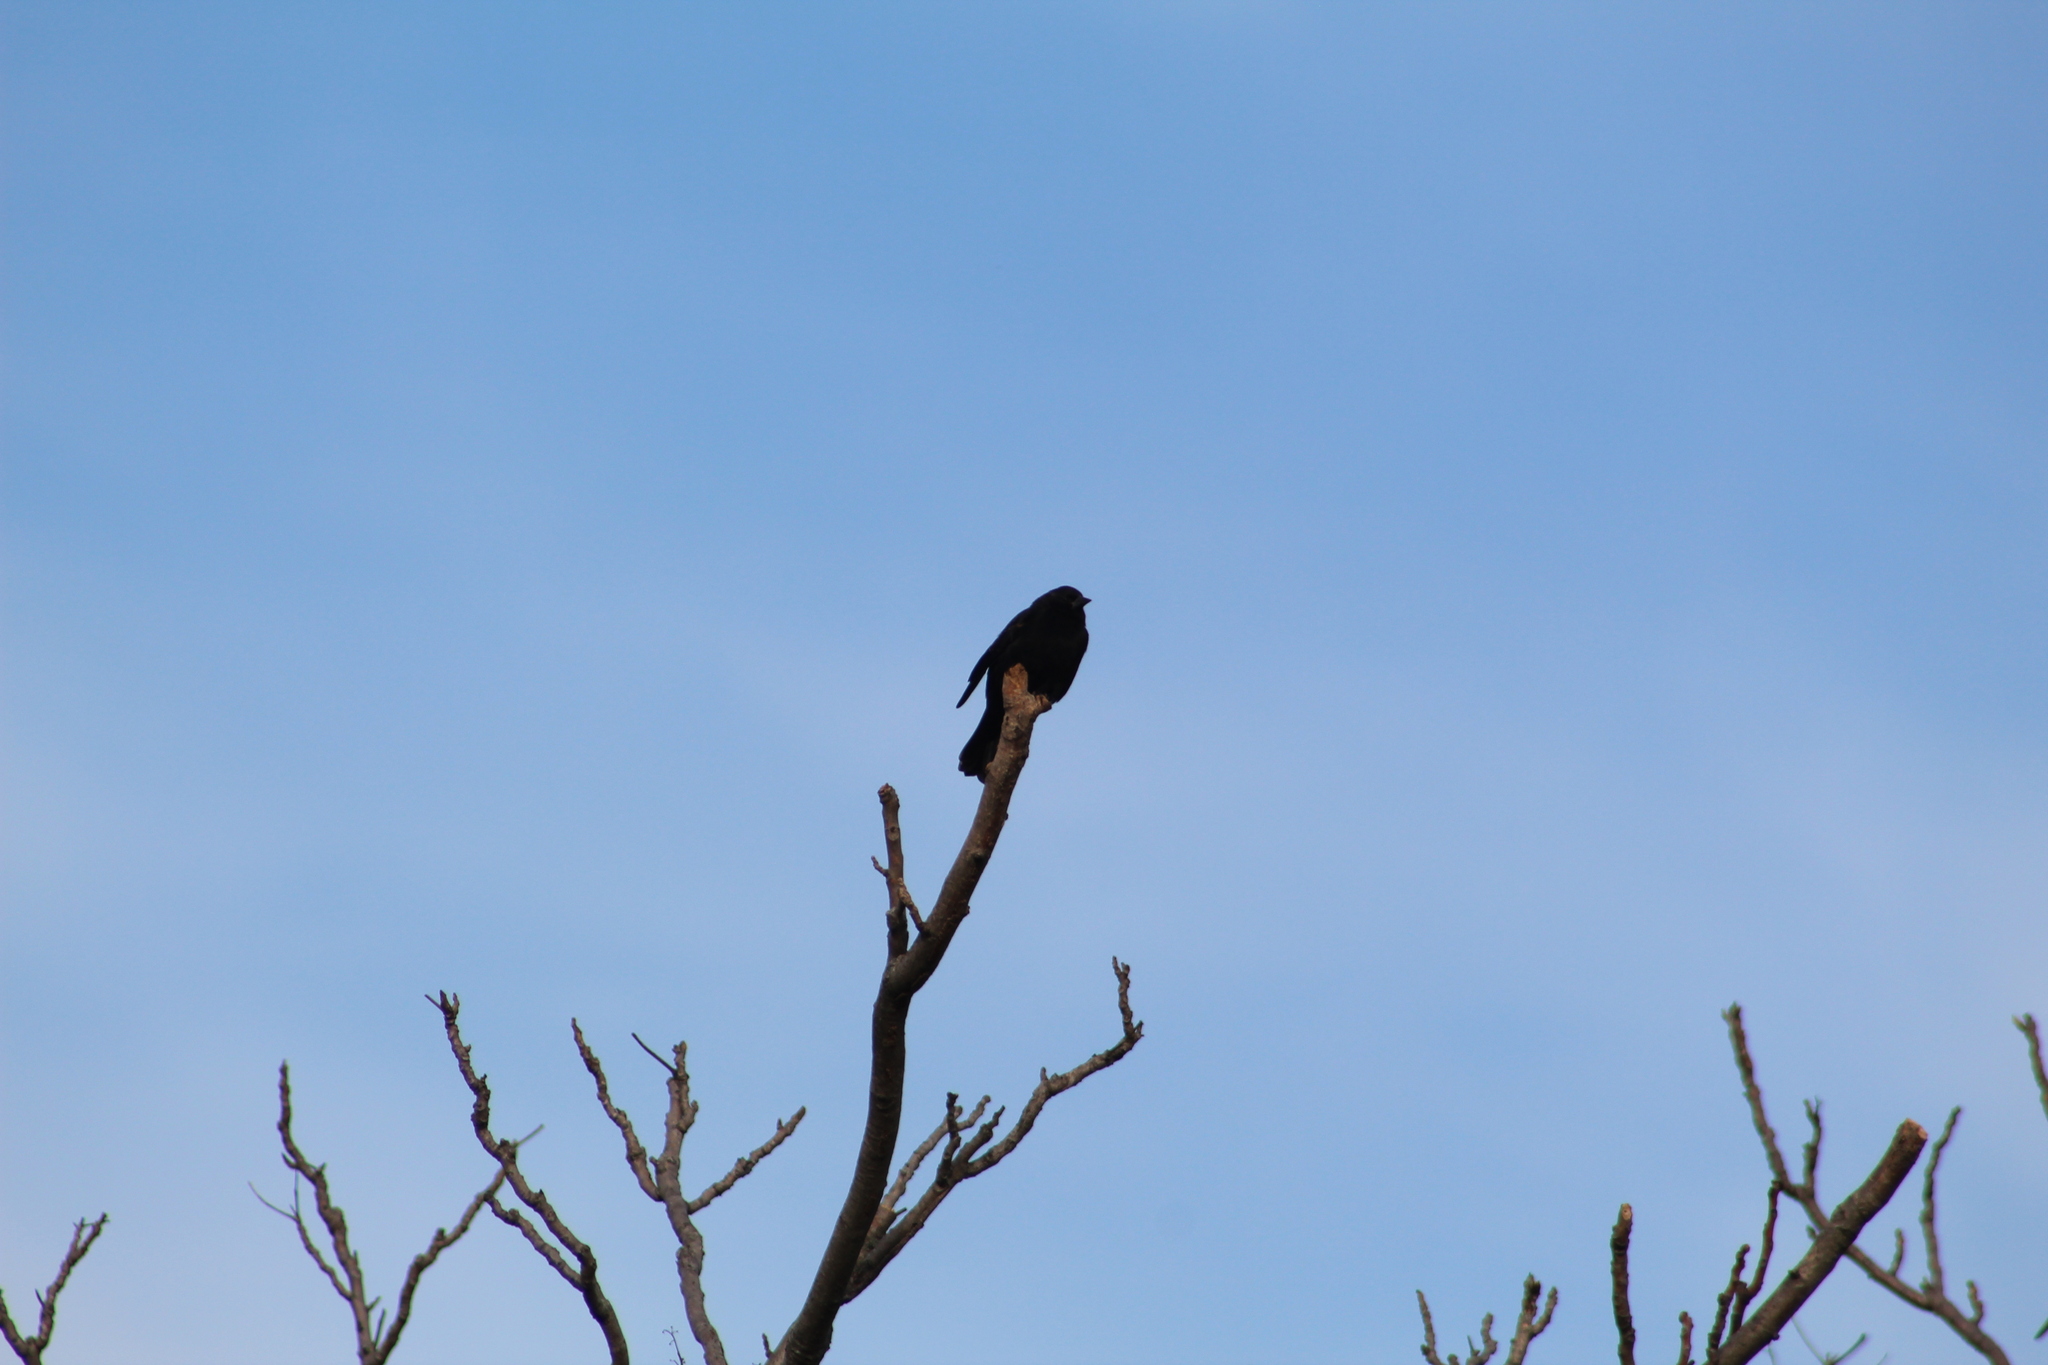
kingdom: Animalia
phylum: Chordata
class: Aves
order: Passeriformes
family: Icteridae
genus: Agelaius
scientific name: Agelaius phoeniceus
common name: Red-winged blackbird
